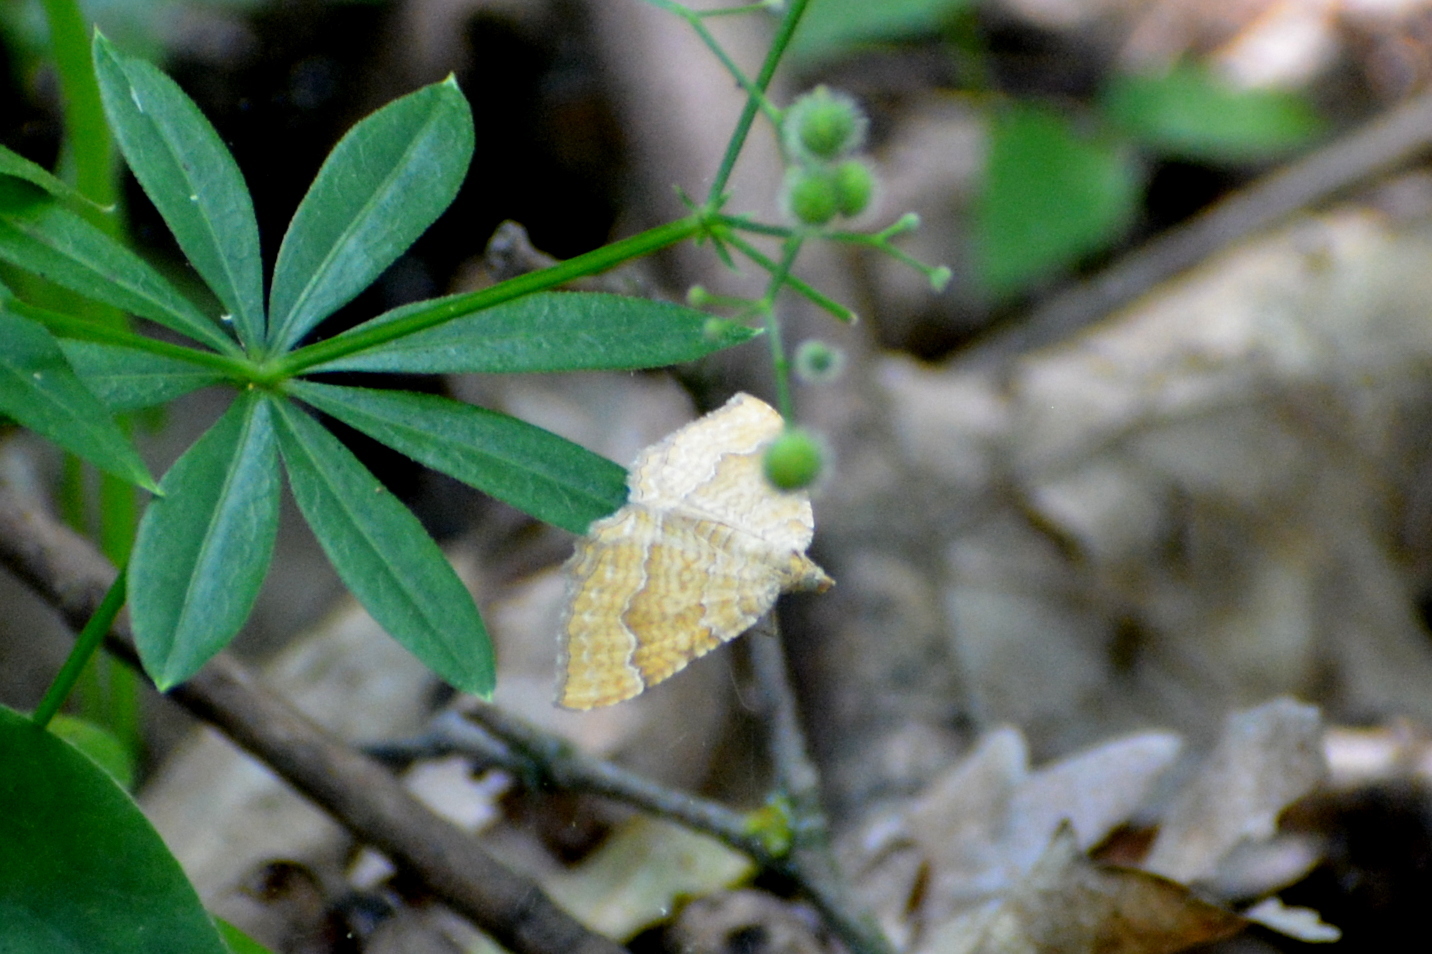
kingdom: Animalia
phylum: Arthropoda
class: Insecta
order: Lepidoptera
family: Geometridae
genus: Camptogramma
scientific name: Camptogramma bilineata
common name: Yellow shell
